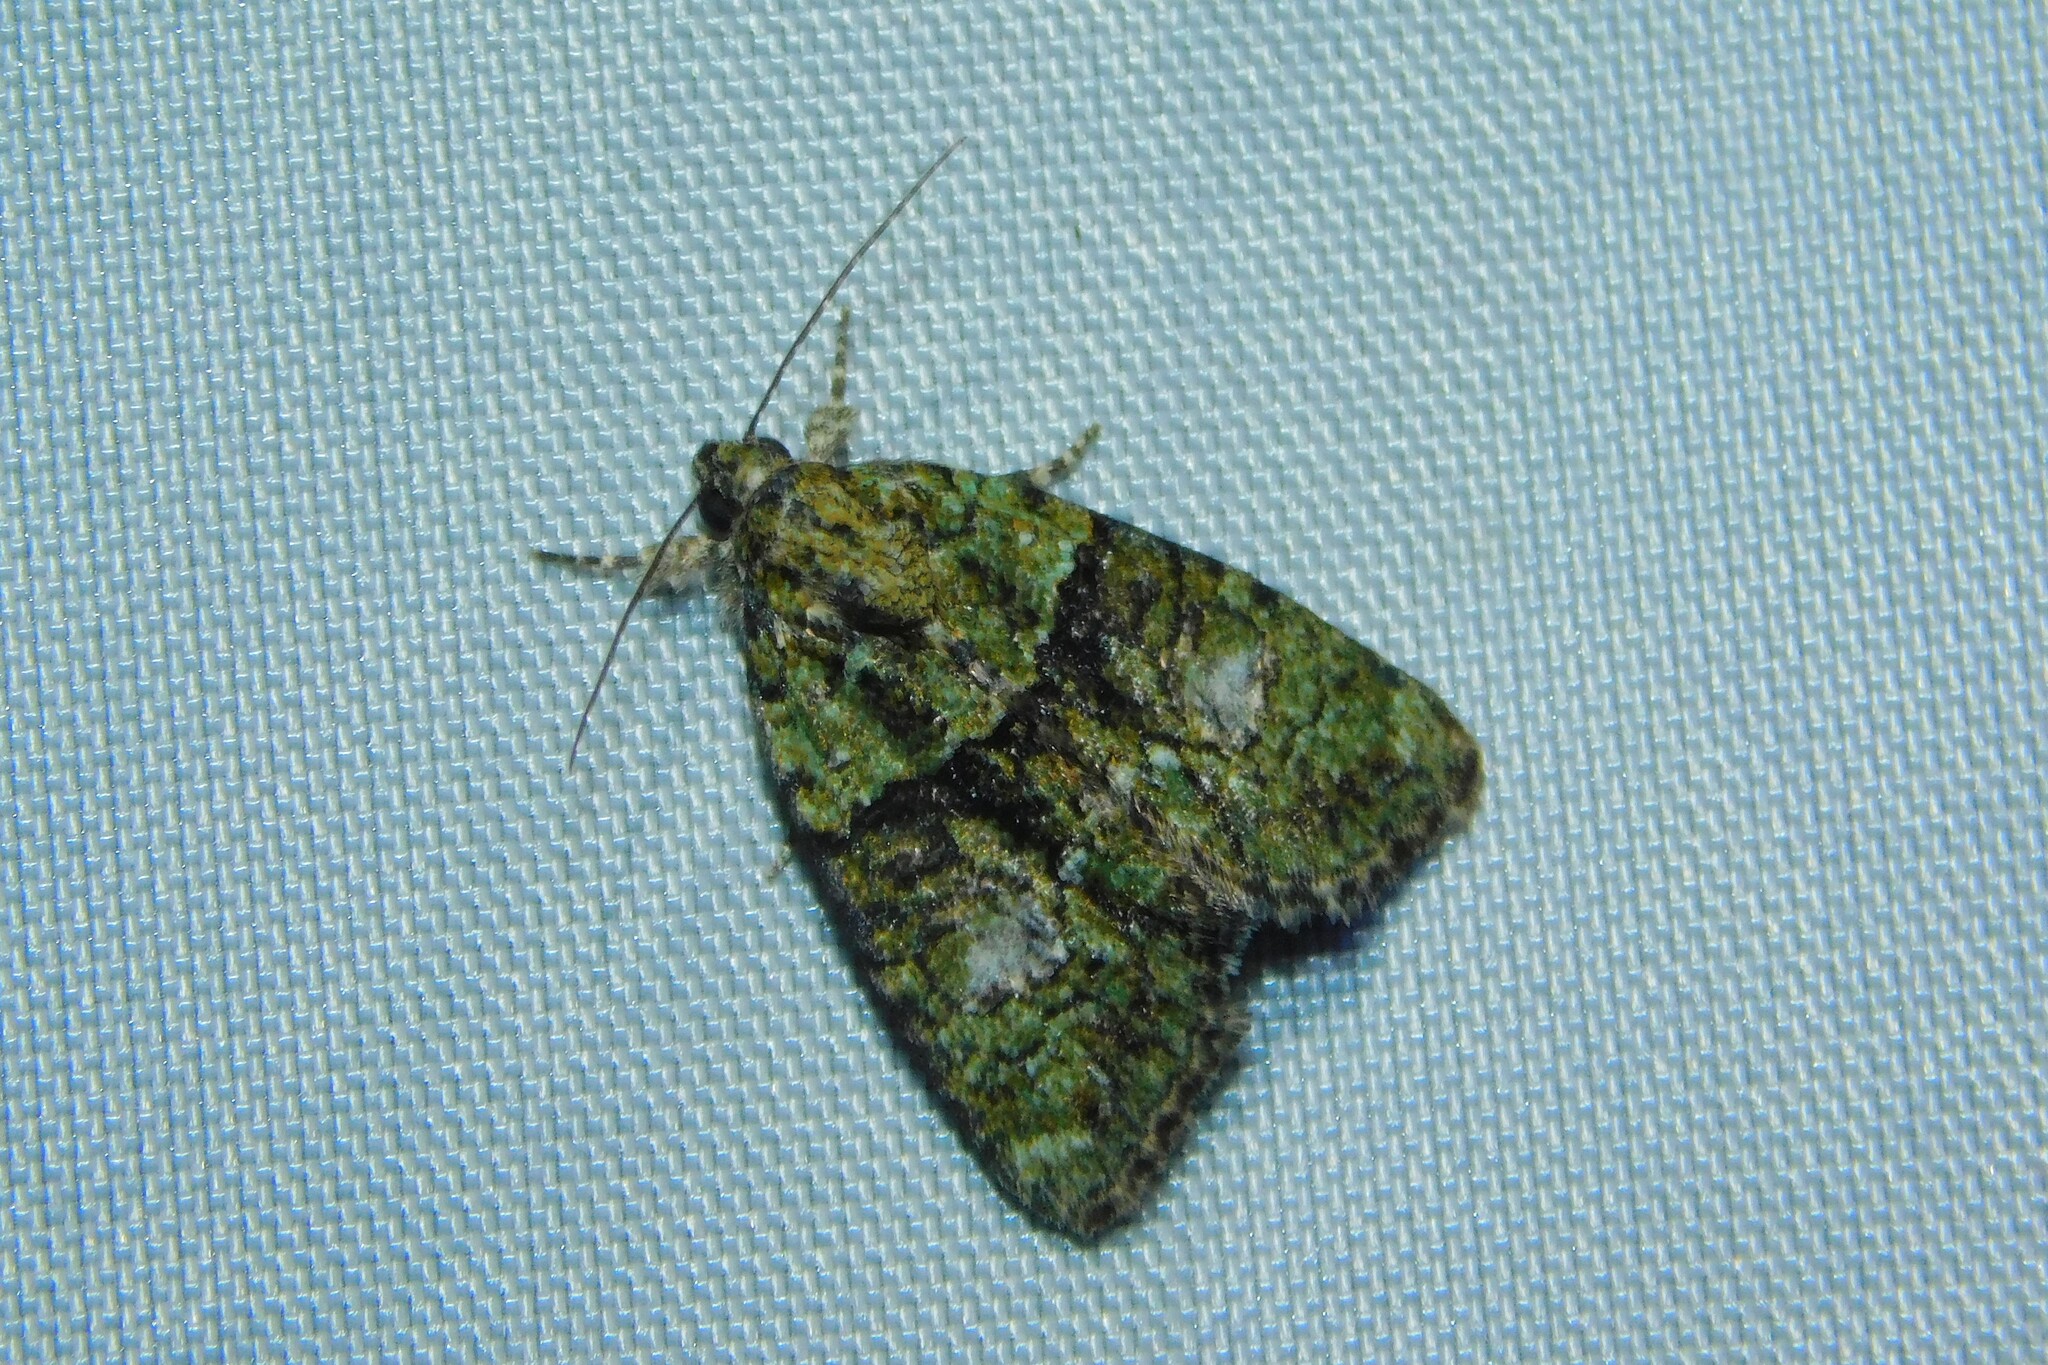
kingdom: Animalia
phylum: Arthropoda
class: Insecta
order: Lepidoptera
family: Noctuidae
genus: Cryphia
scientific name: Cryphia algae
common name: Tree-lichen beauty
